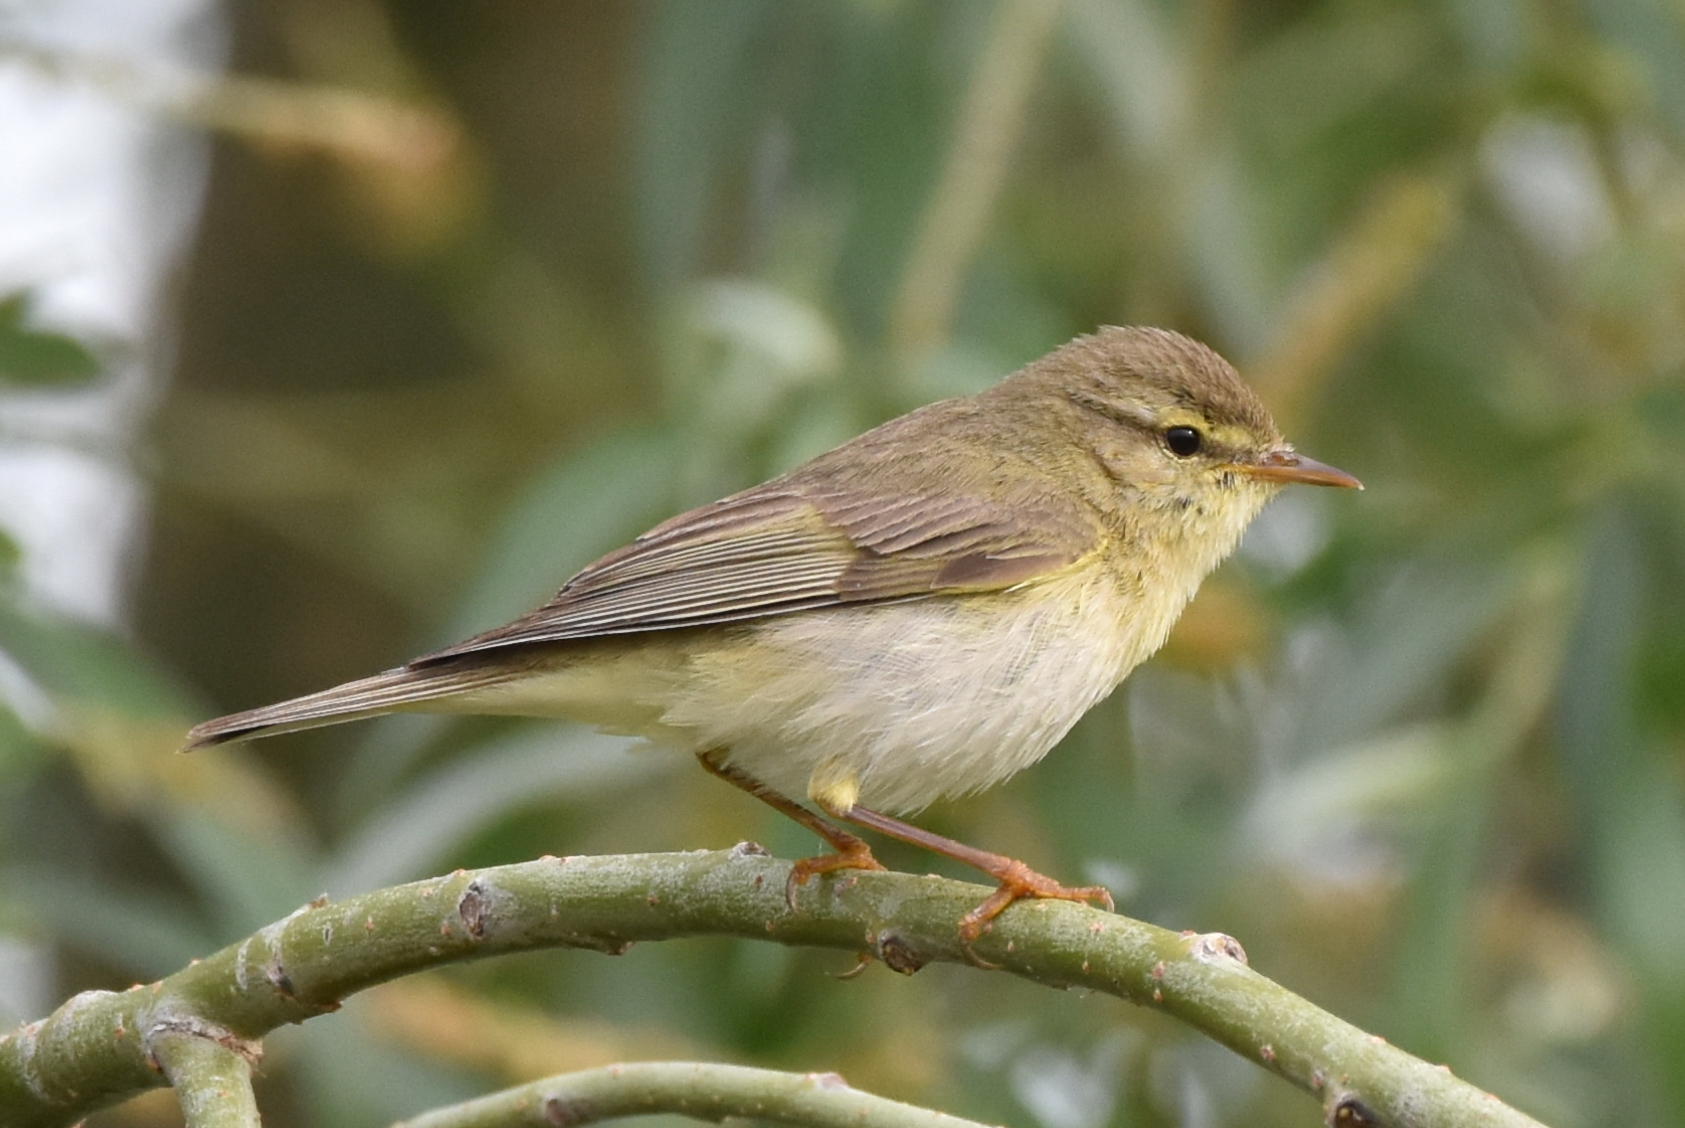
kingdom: Animalia
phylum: Chordata
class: Aves
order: Passeriformes
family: Phylloscopidae
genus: Phylloscopus
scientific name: Phylloscopus trochilus
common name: Willow warbler
